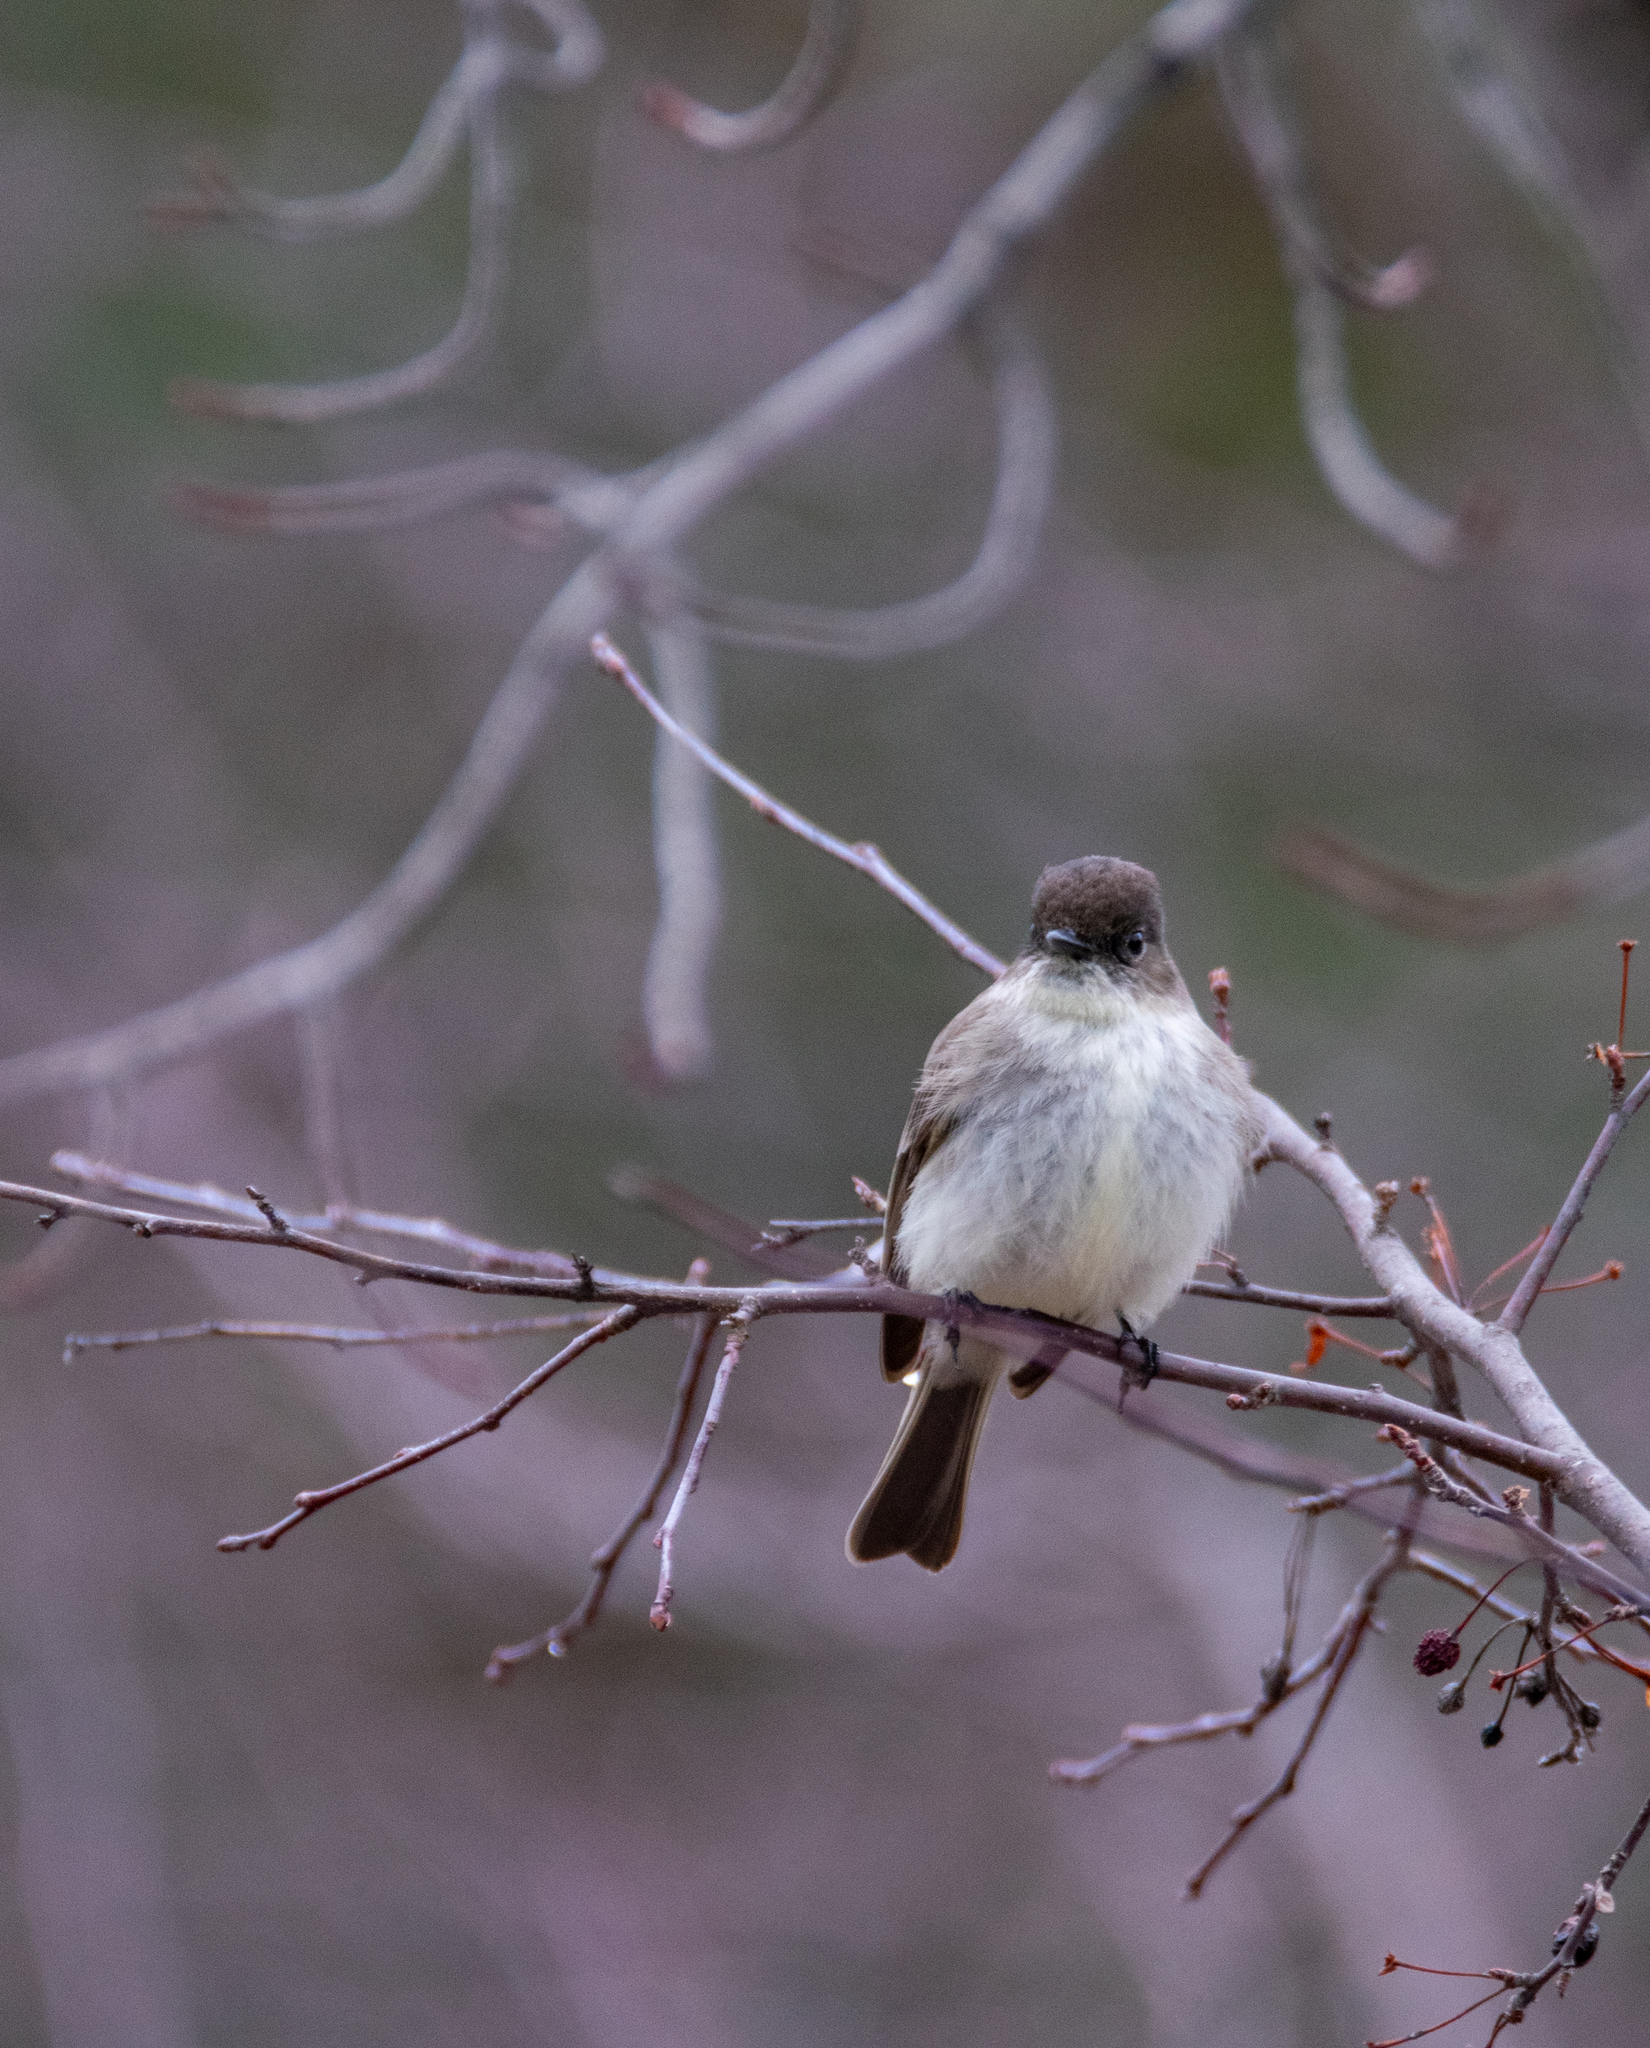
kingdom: Animalia
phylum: Chordata
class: Aves
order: Passeriformes
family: Tyrannidae
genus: Sayornis
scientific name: Sayornis phoebe
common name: Eastern phoebe
